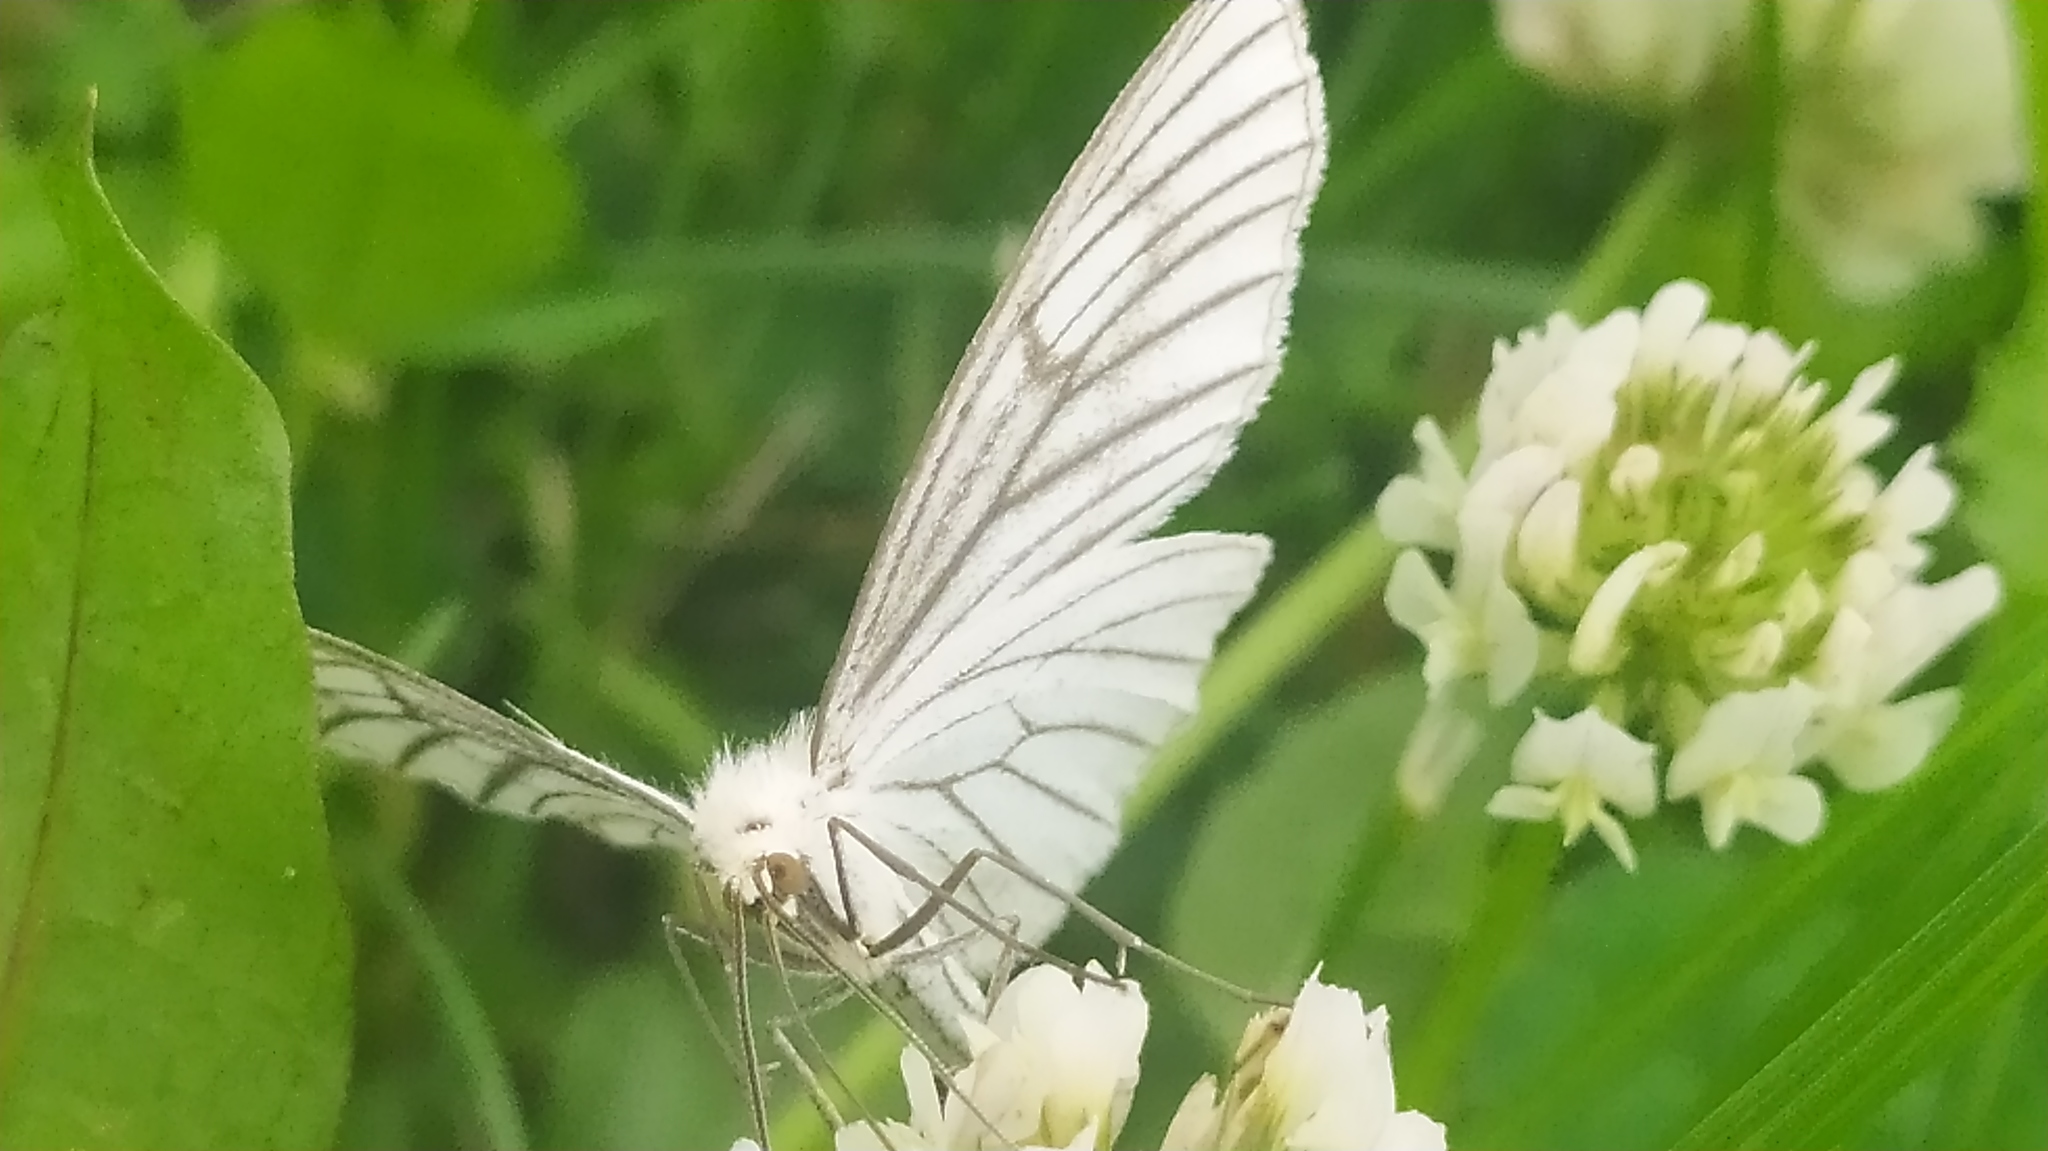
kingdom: Animalia
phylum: Arthropoda
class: Insecta
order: Lepidoptera
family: Geometridae
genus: Siona
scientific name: Siona lineata
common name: Black-veined moth
